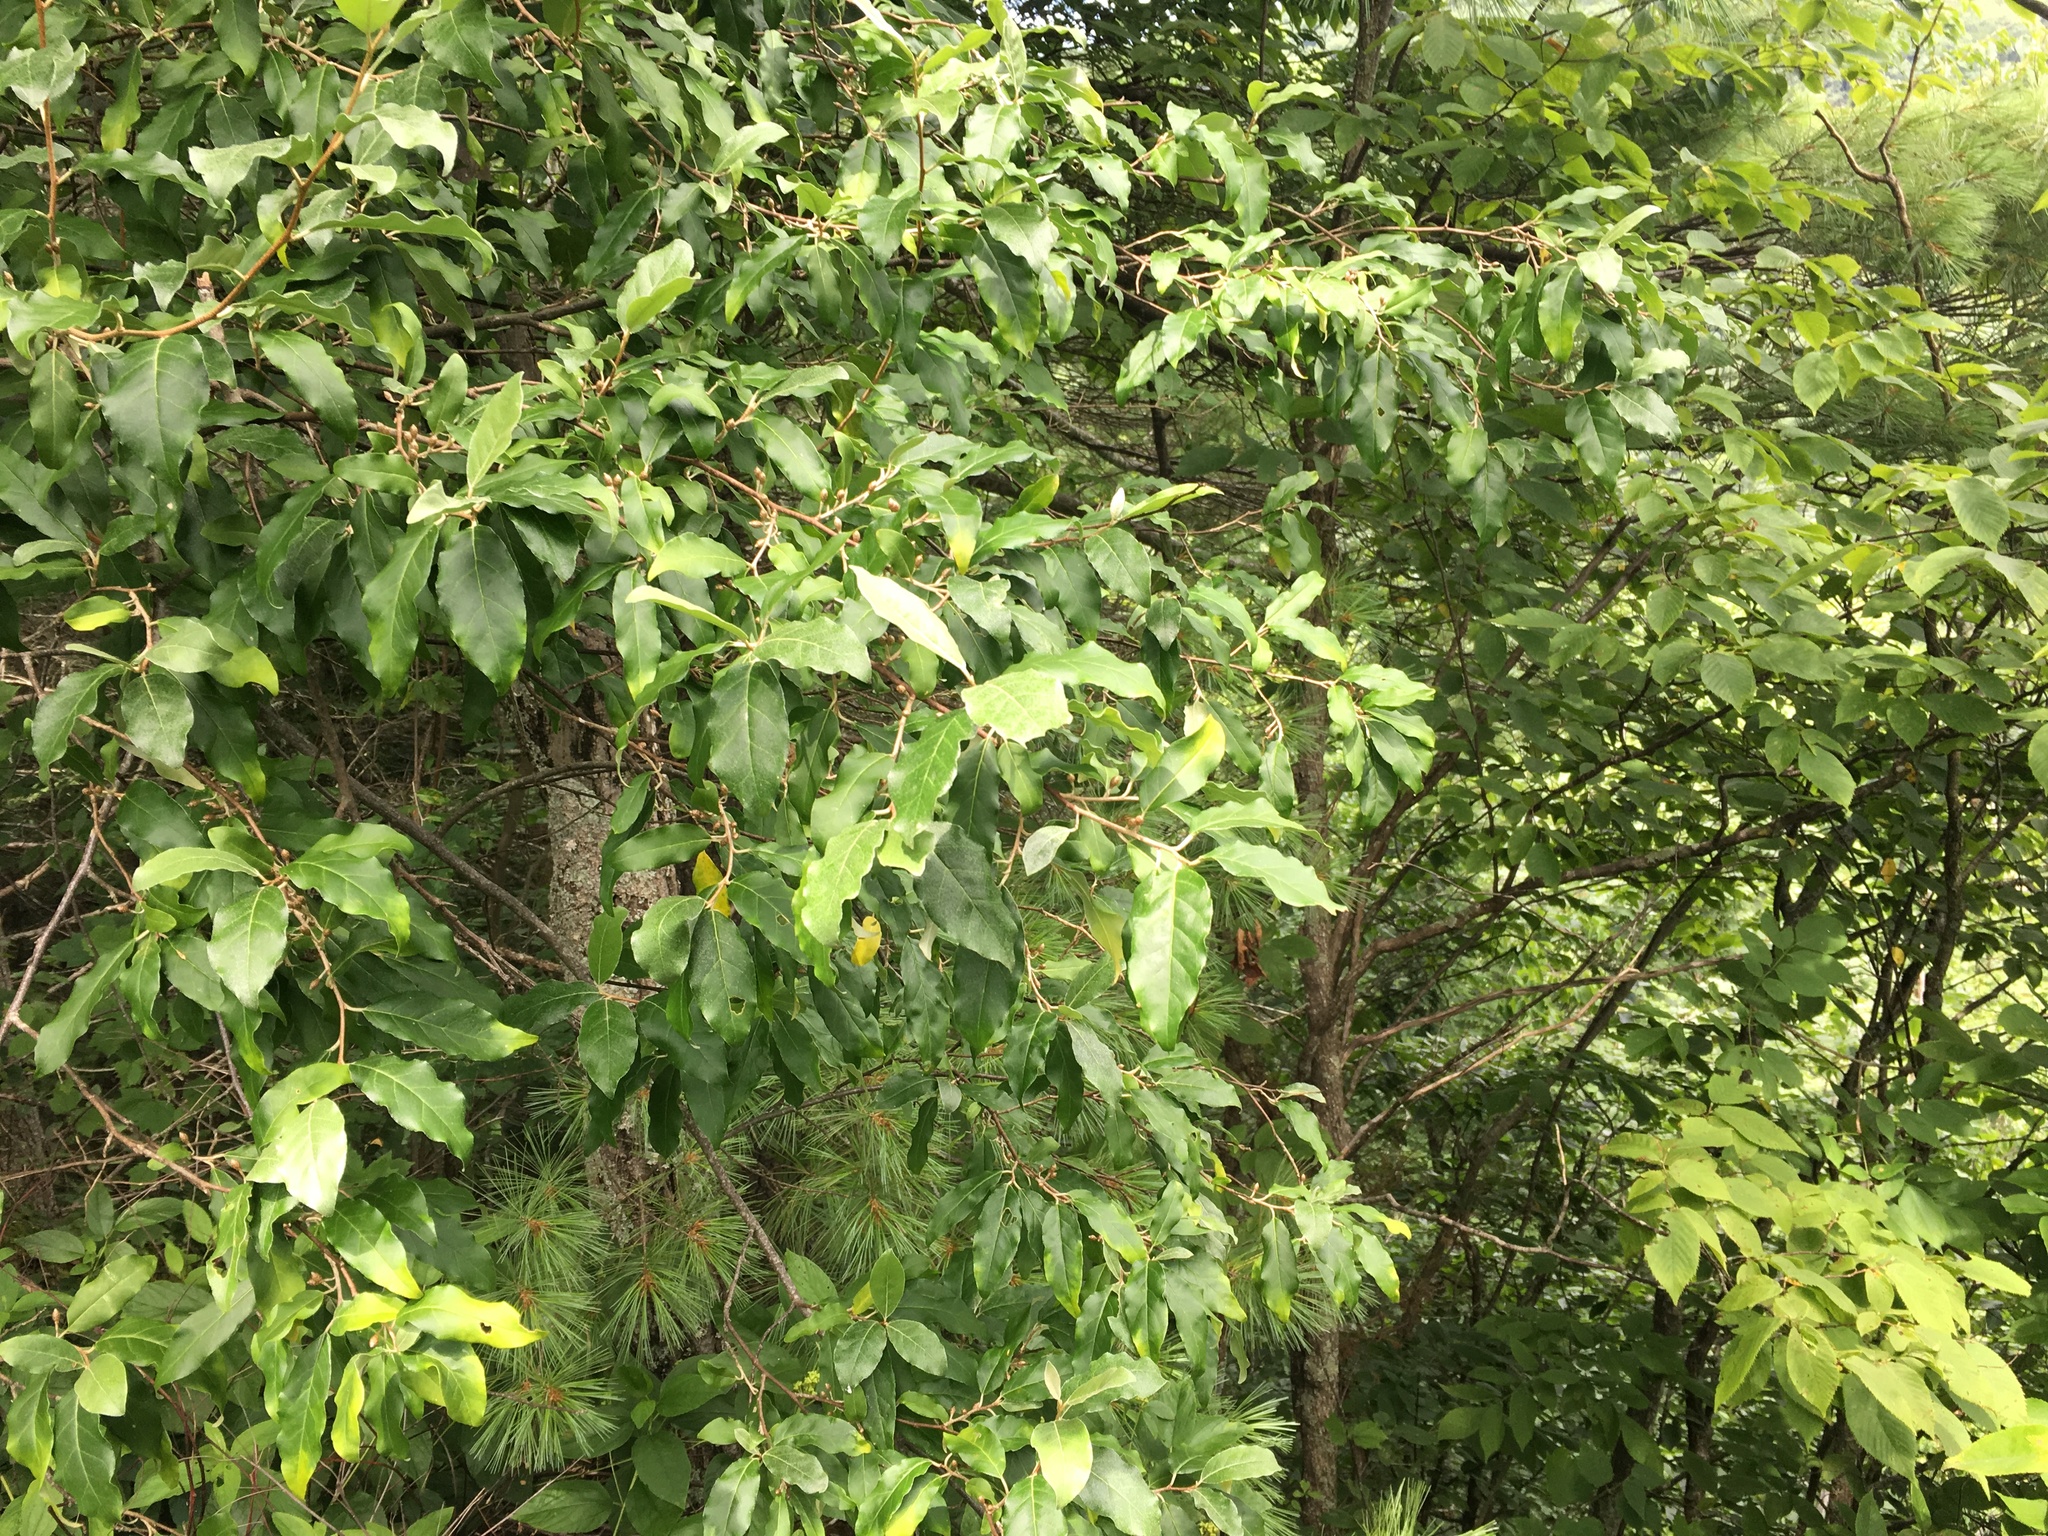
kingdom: Plantae
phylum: Tracheophyta
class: Magnoliopsida
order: Rosales
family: Elaeagnaceae
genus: Elaeagnus
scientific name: Elaeagnus umbellata
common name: Autumn olive
